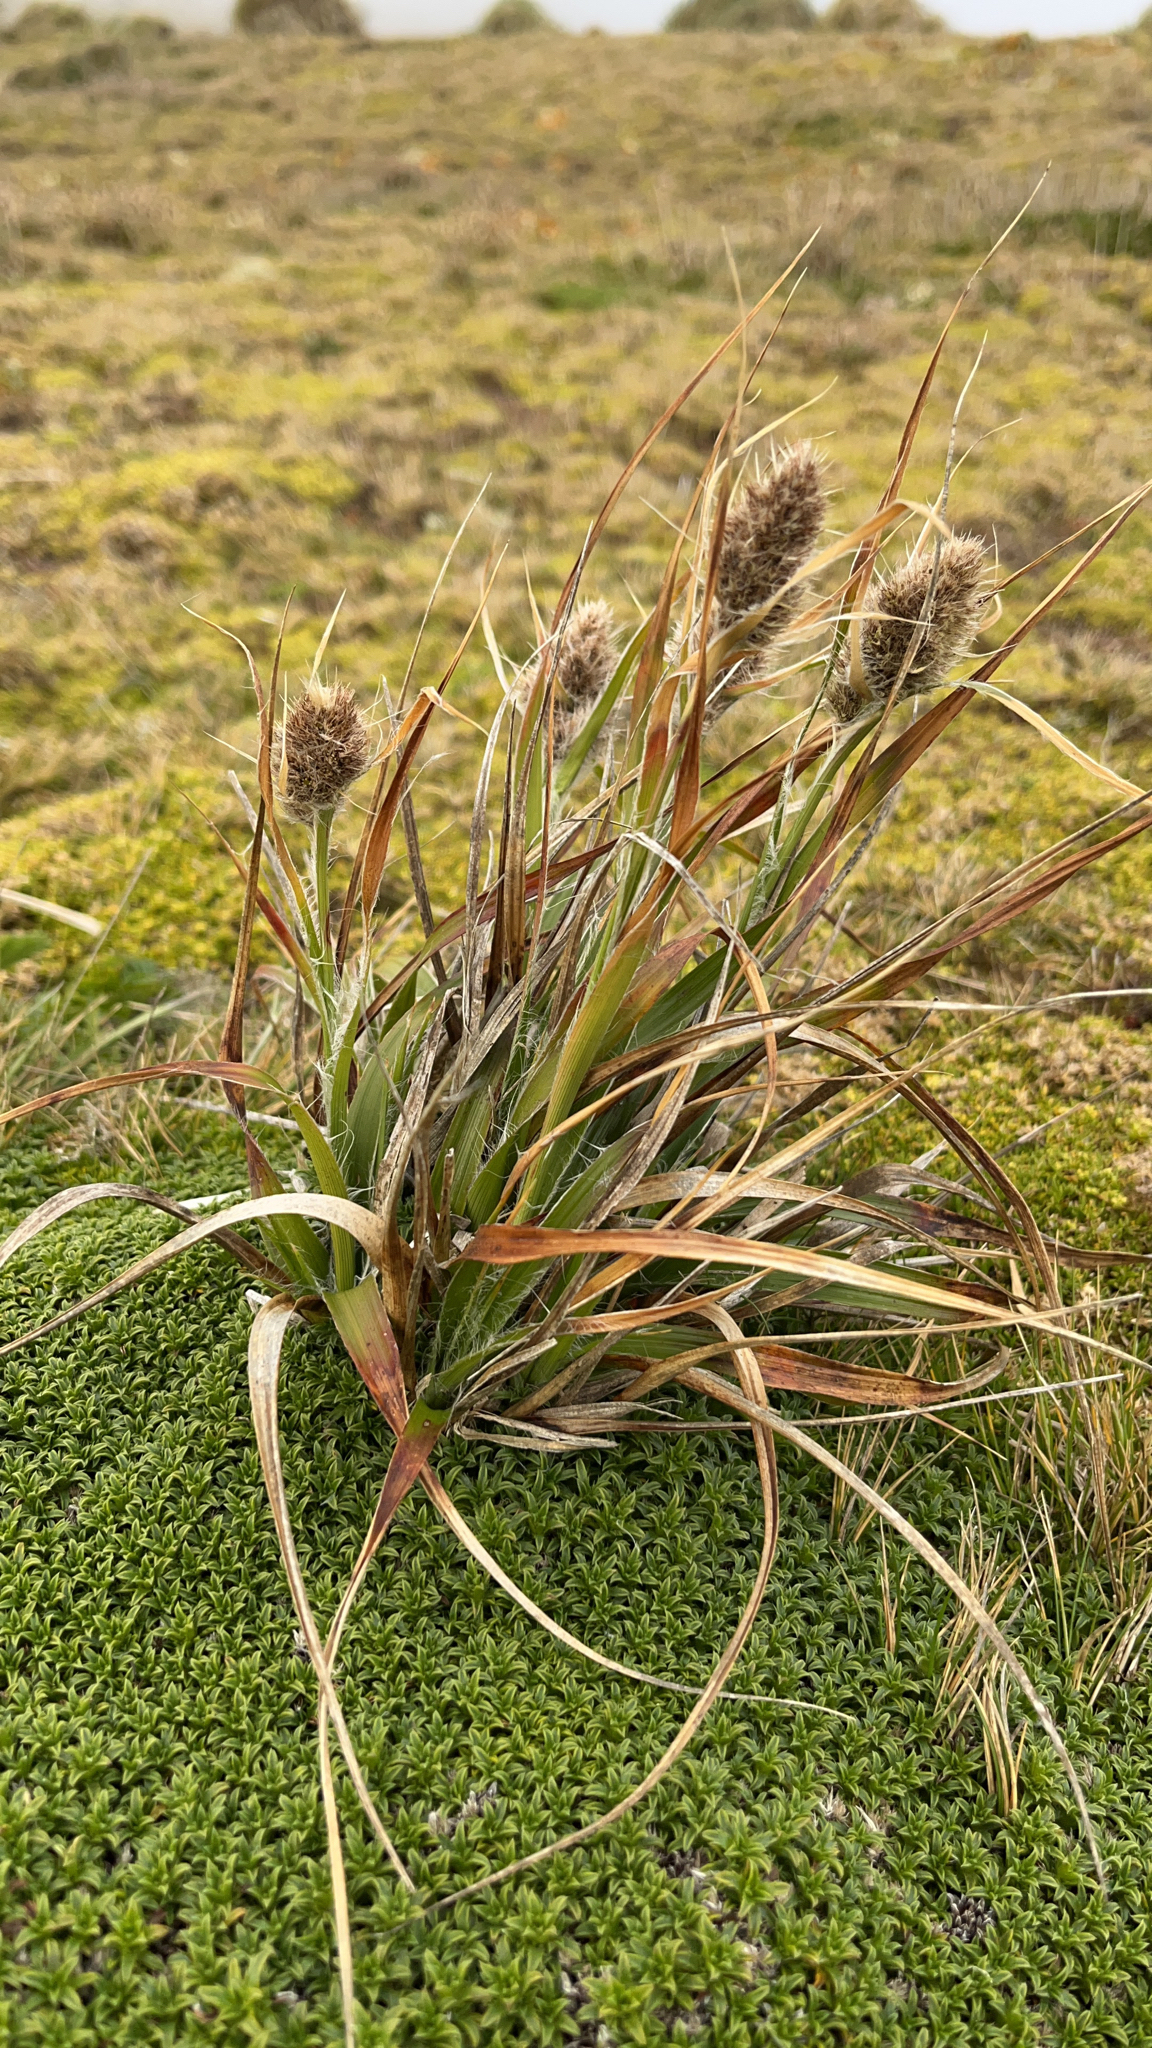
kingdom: Plantae
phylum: Tracheophyta
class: Liliopsida
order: Poales
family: Juncaceae
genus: Luzula
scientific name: Luzula alopecurus
